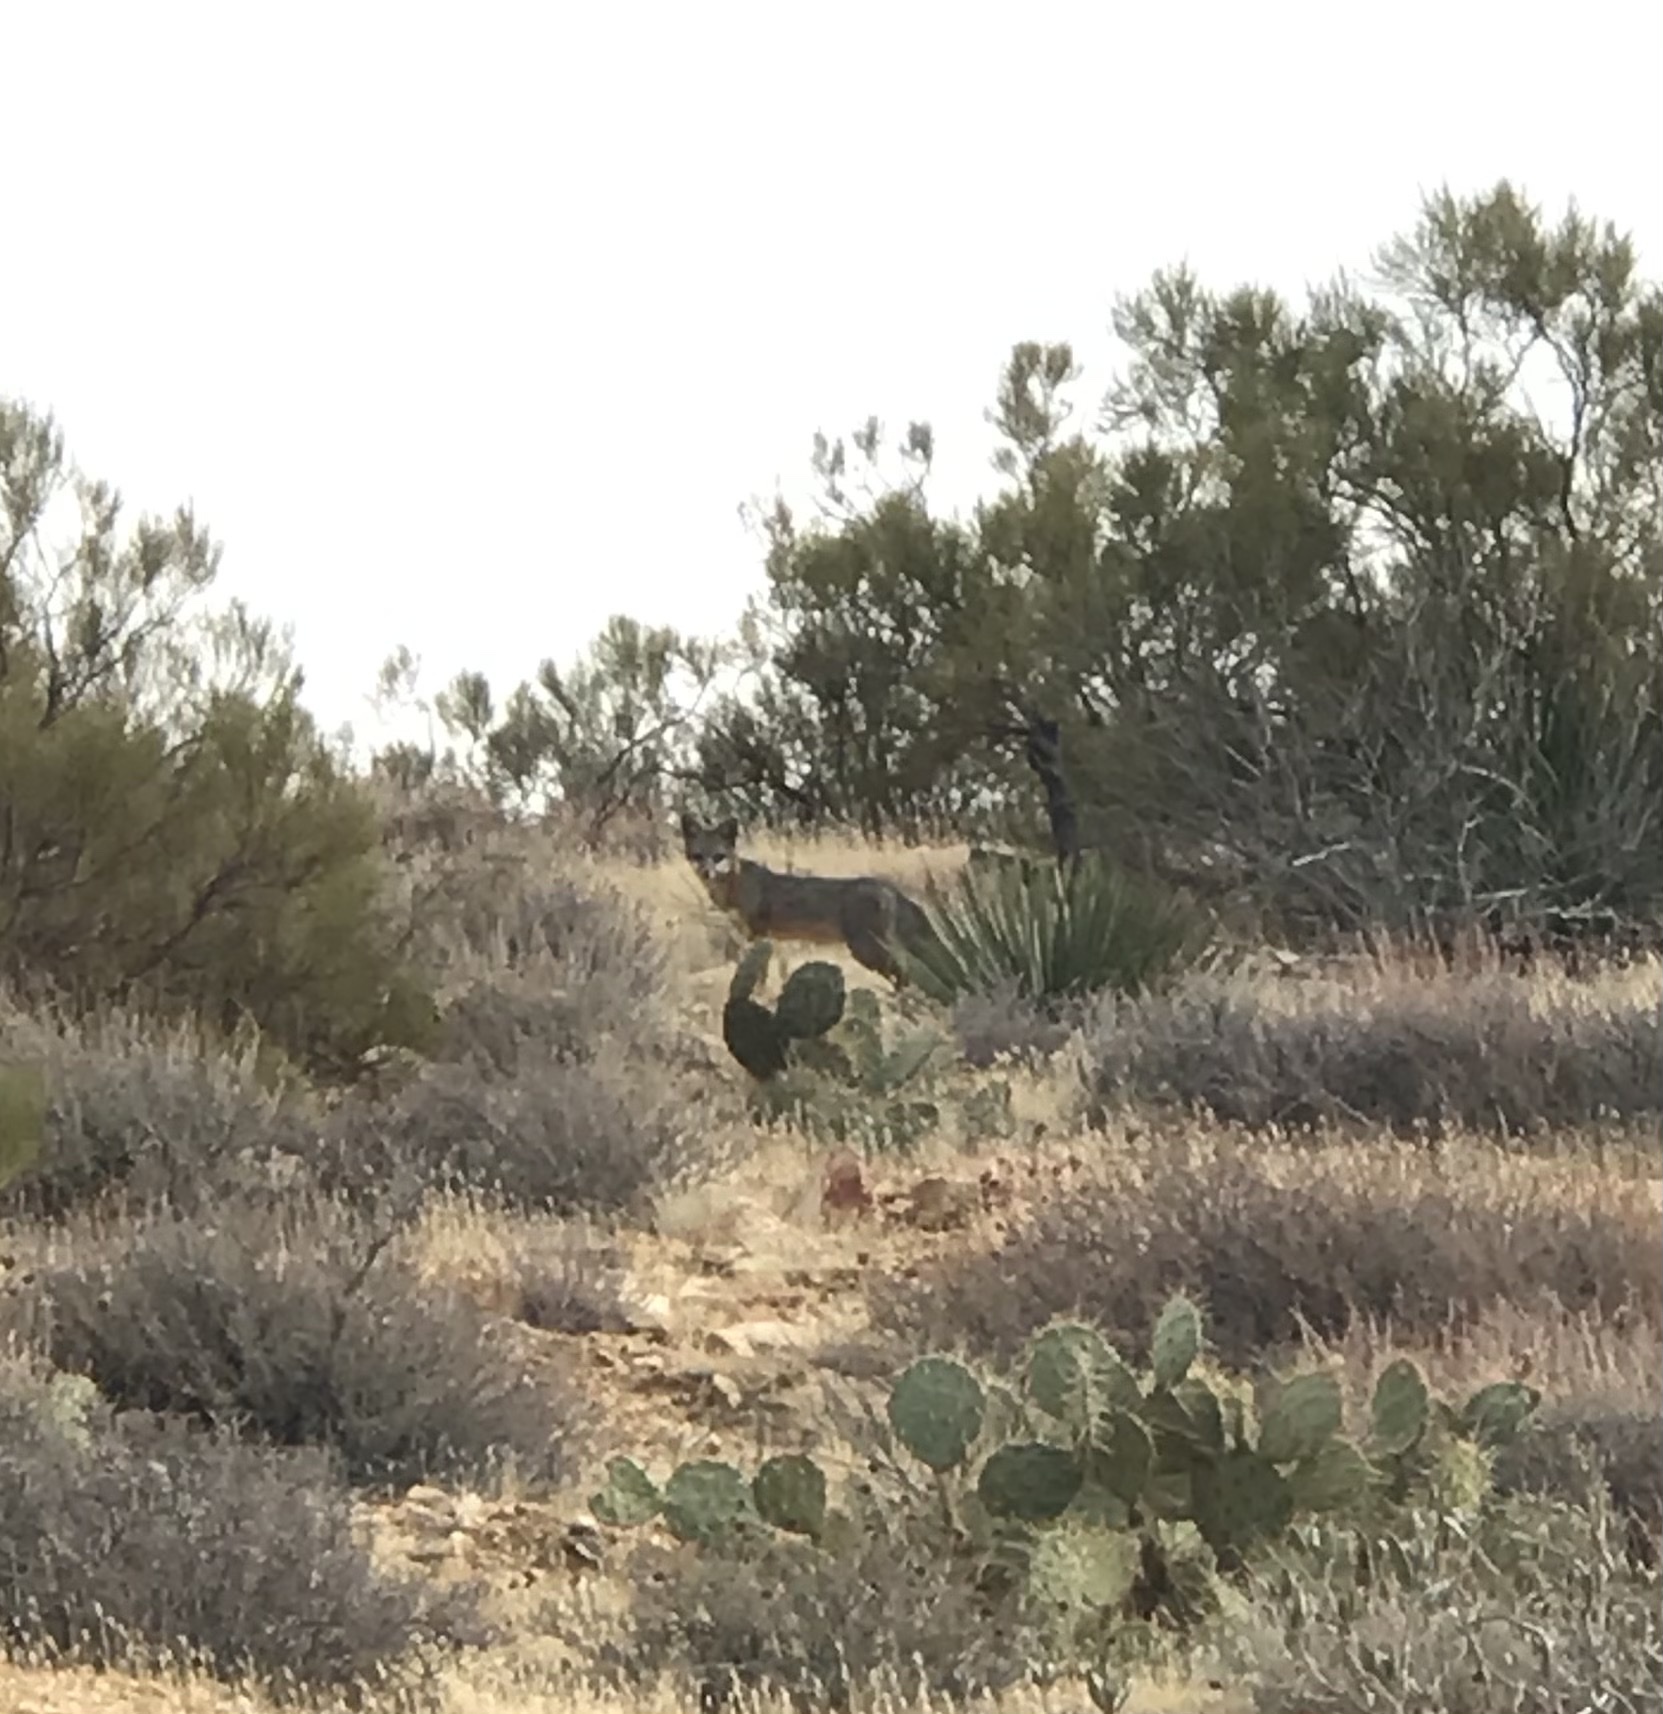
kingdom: Animalia
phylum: Chordata
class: Mammalia
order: Carnivora
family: Canidae
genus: Urocyon
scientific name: Urocyon cinereoargenteus
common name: Gray fox
